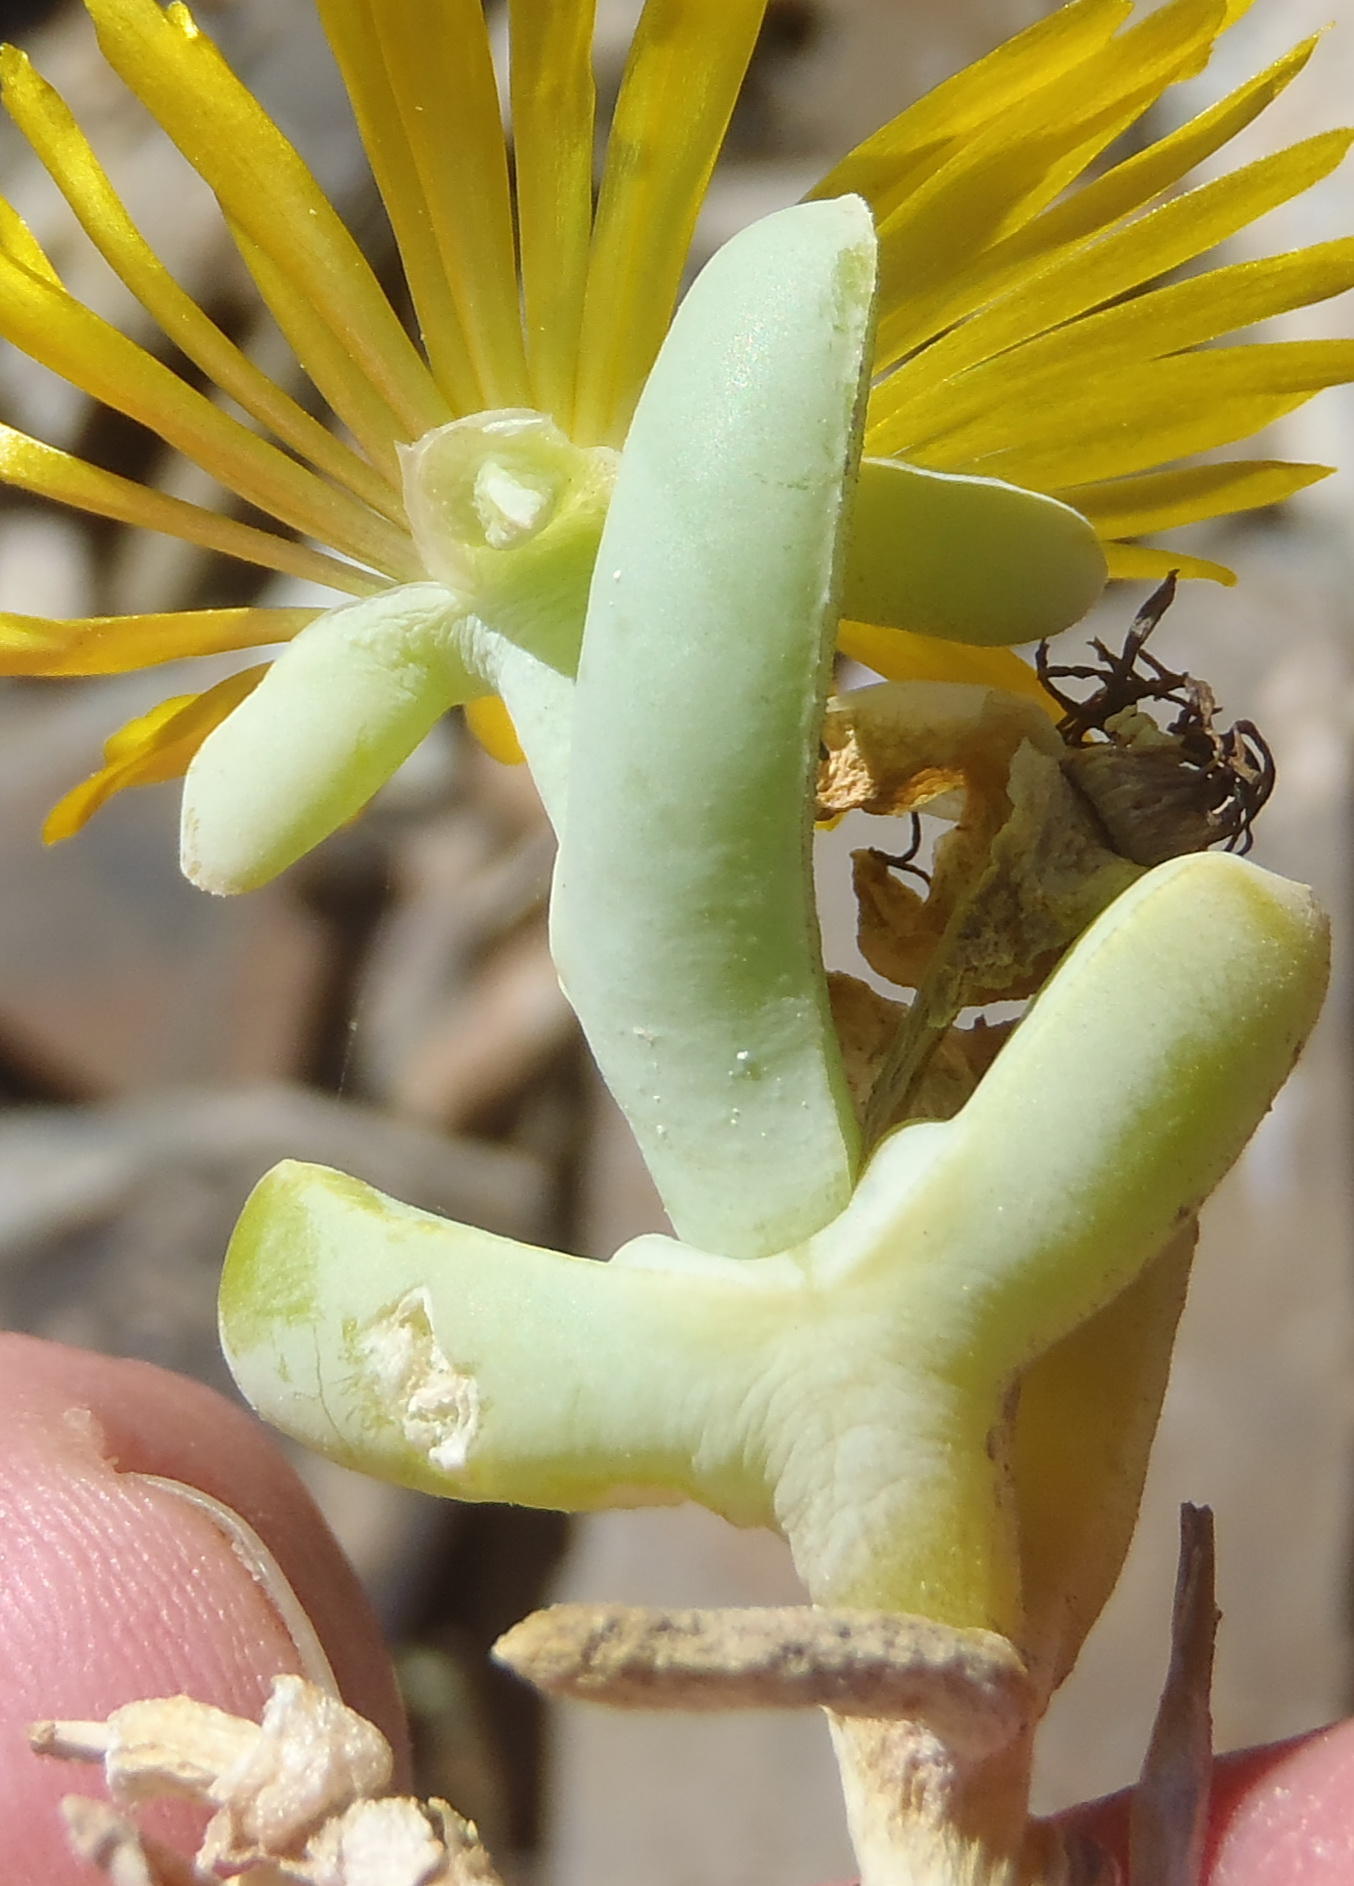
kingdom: Plantae
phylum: Tracheophyta
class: Magnoliopsida
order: Caryophyllales
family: Aizoaceae
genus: Malephora
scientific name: Malephora lutea
